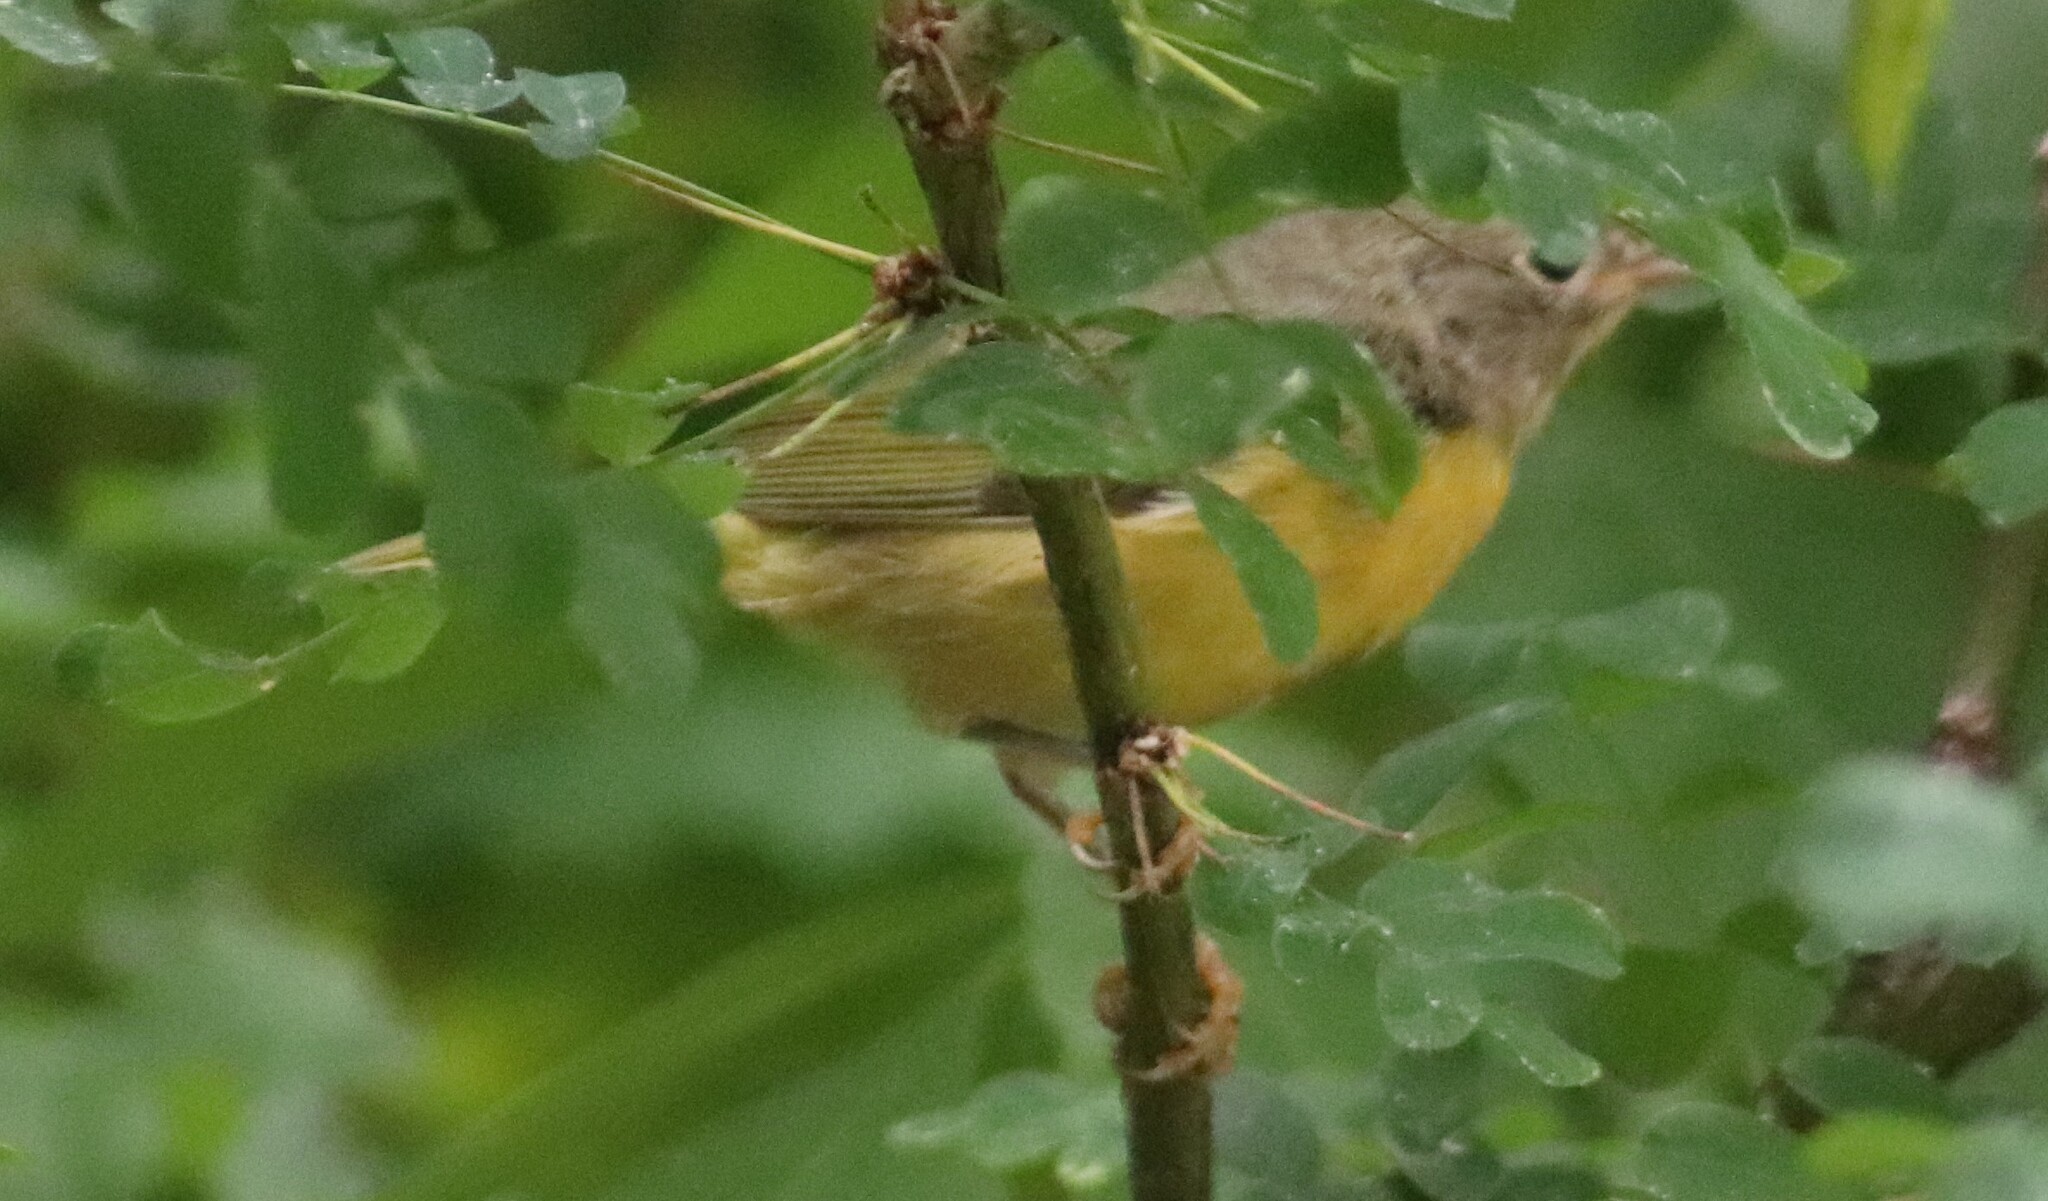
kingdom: Animalia
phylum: Chordata
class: Aves
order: Passeriformes
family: Parulidae
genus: Leiothlypis
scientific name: Leiothlypis ruficapilla
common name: Nashville warbler
